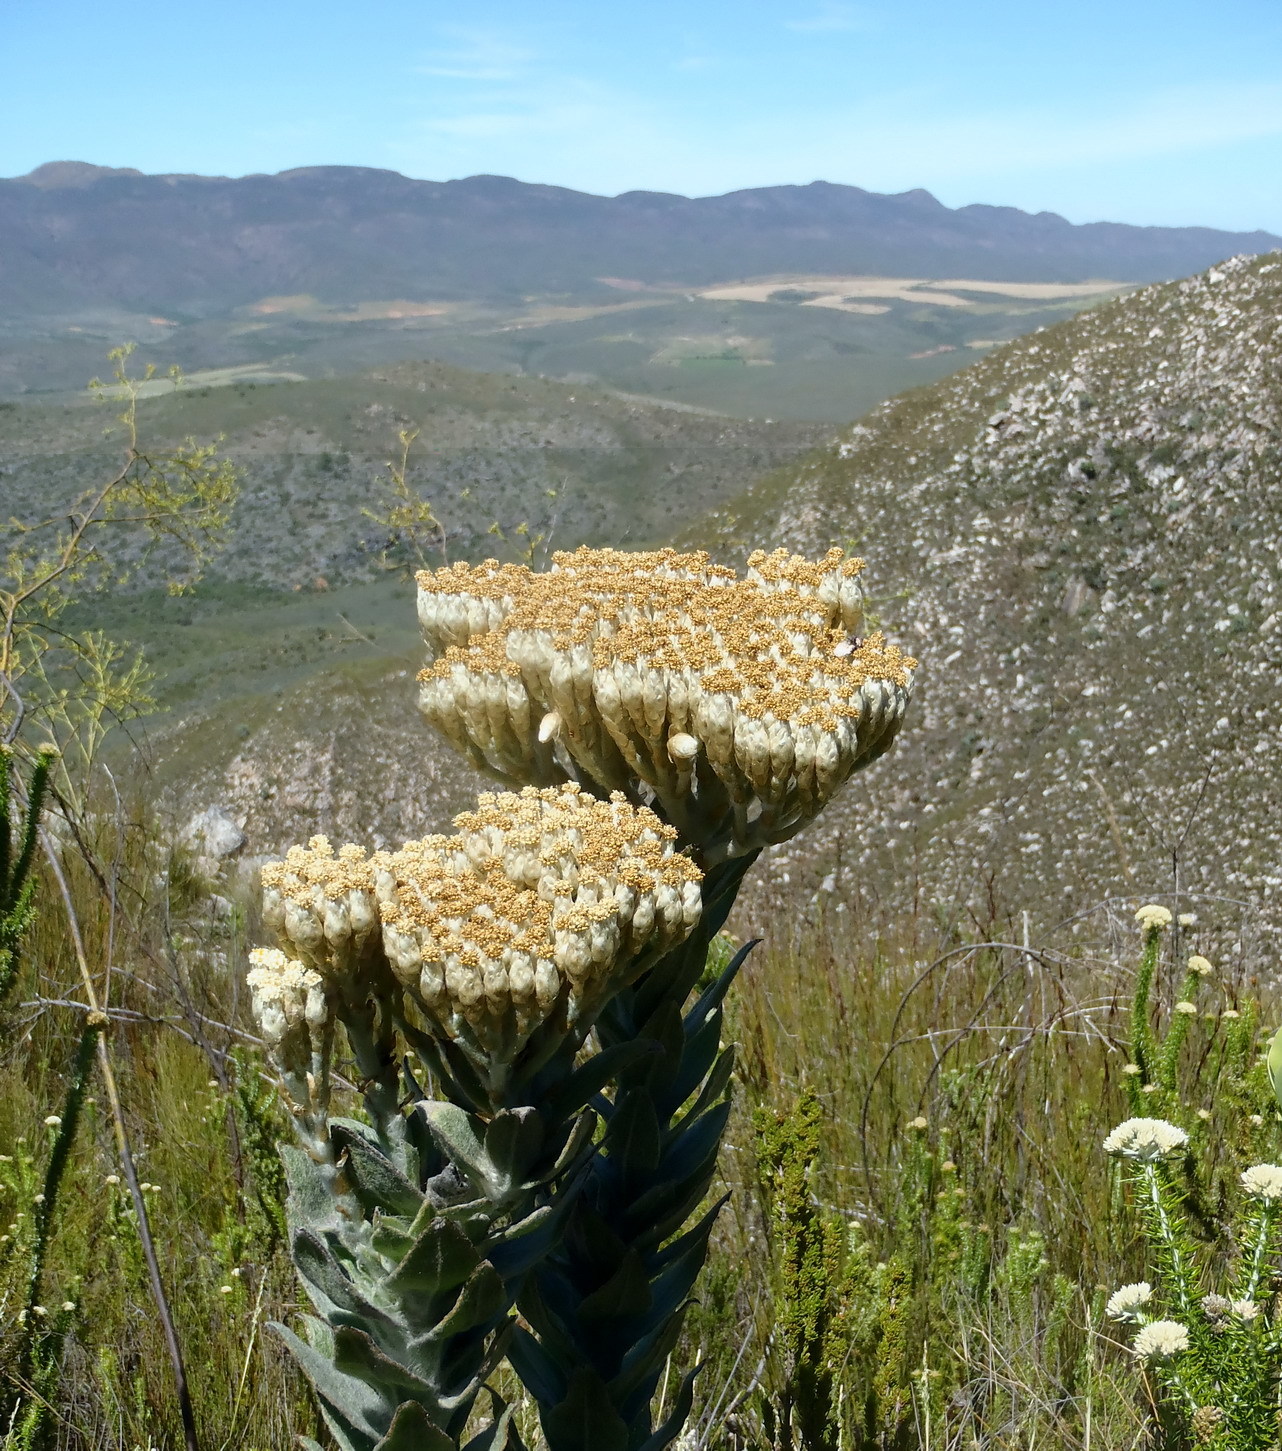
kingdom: Plantae
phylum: Tracheophyta
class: Magnoliopsida
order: Asterales
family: Asteraceae
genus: Syncarpha
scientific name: Syncarpha milleflora
